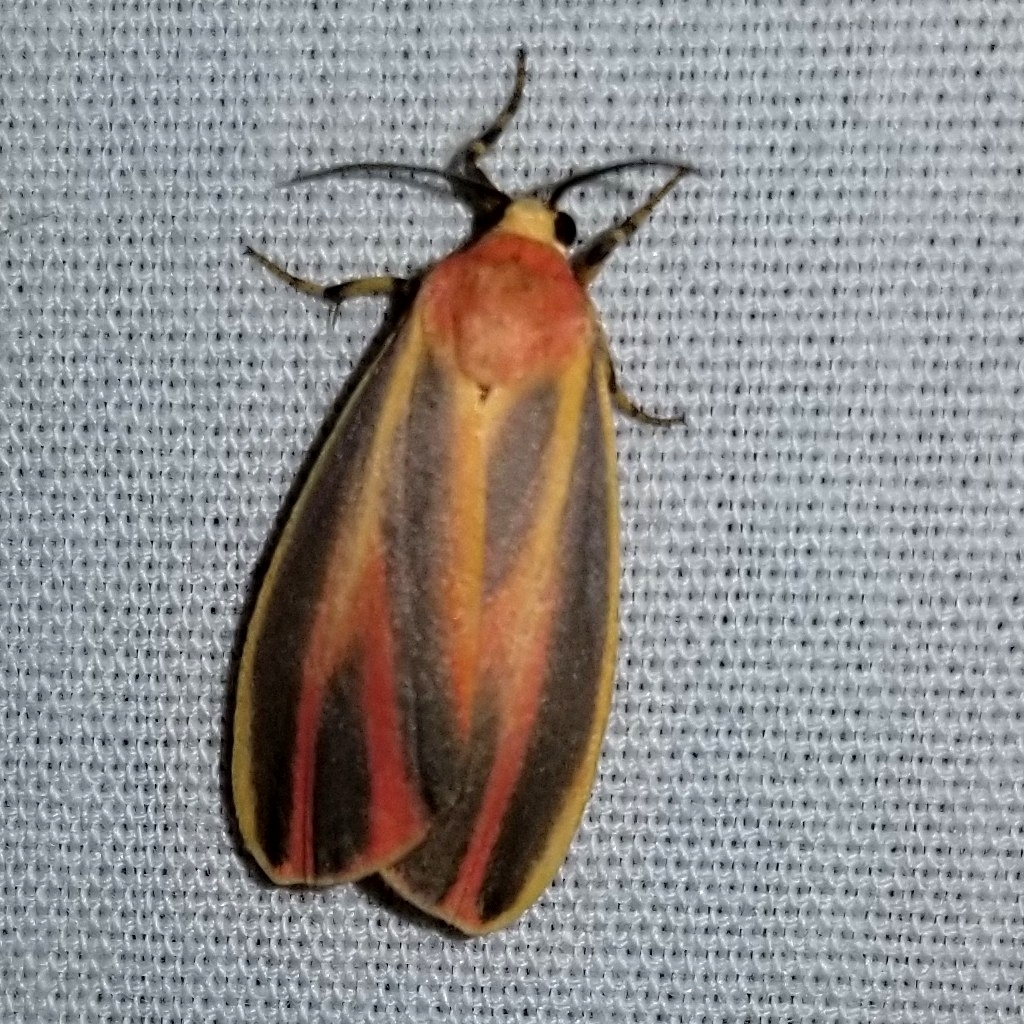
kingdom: Animalia
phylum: Arthropoda
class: Insecta
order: Lepidoptera
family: Erebidae
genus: Hypoprepia
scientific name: Hypoprepia fucosa
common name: Painted lichen moth
